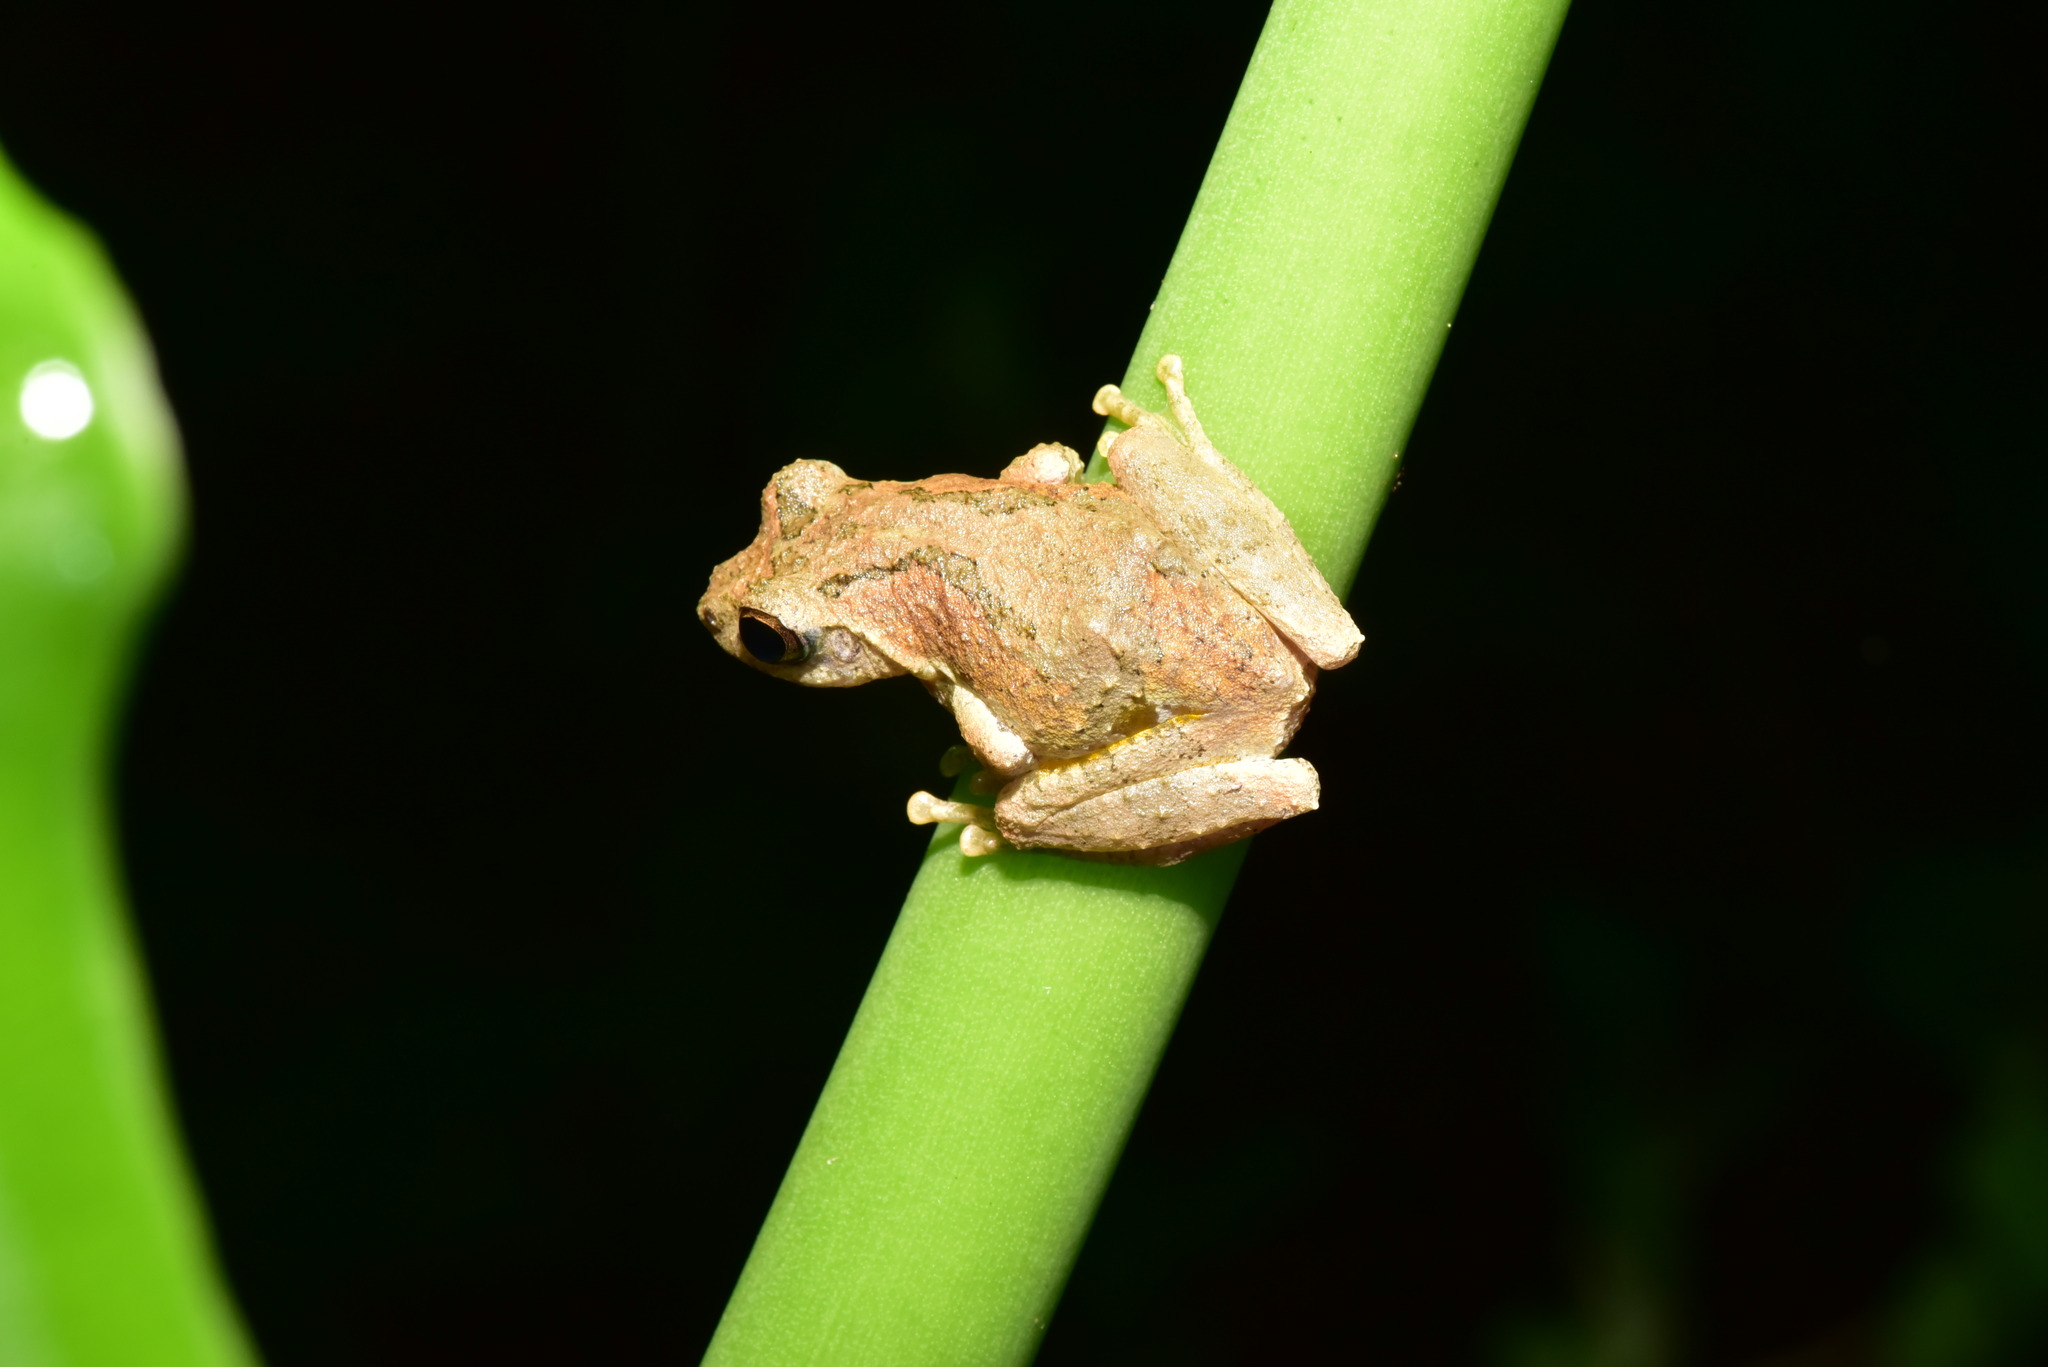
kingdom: Animalia
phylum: Chordata
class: Amphibia
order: Anura
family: Rhacophoridae
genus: Kurixalus
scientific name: Kurixalus idiootocus
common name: Temple treefrog
